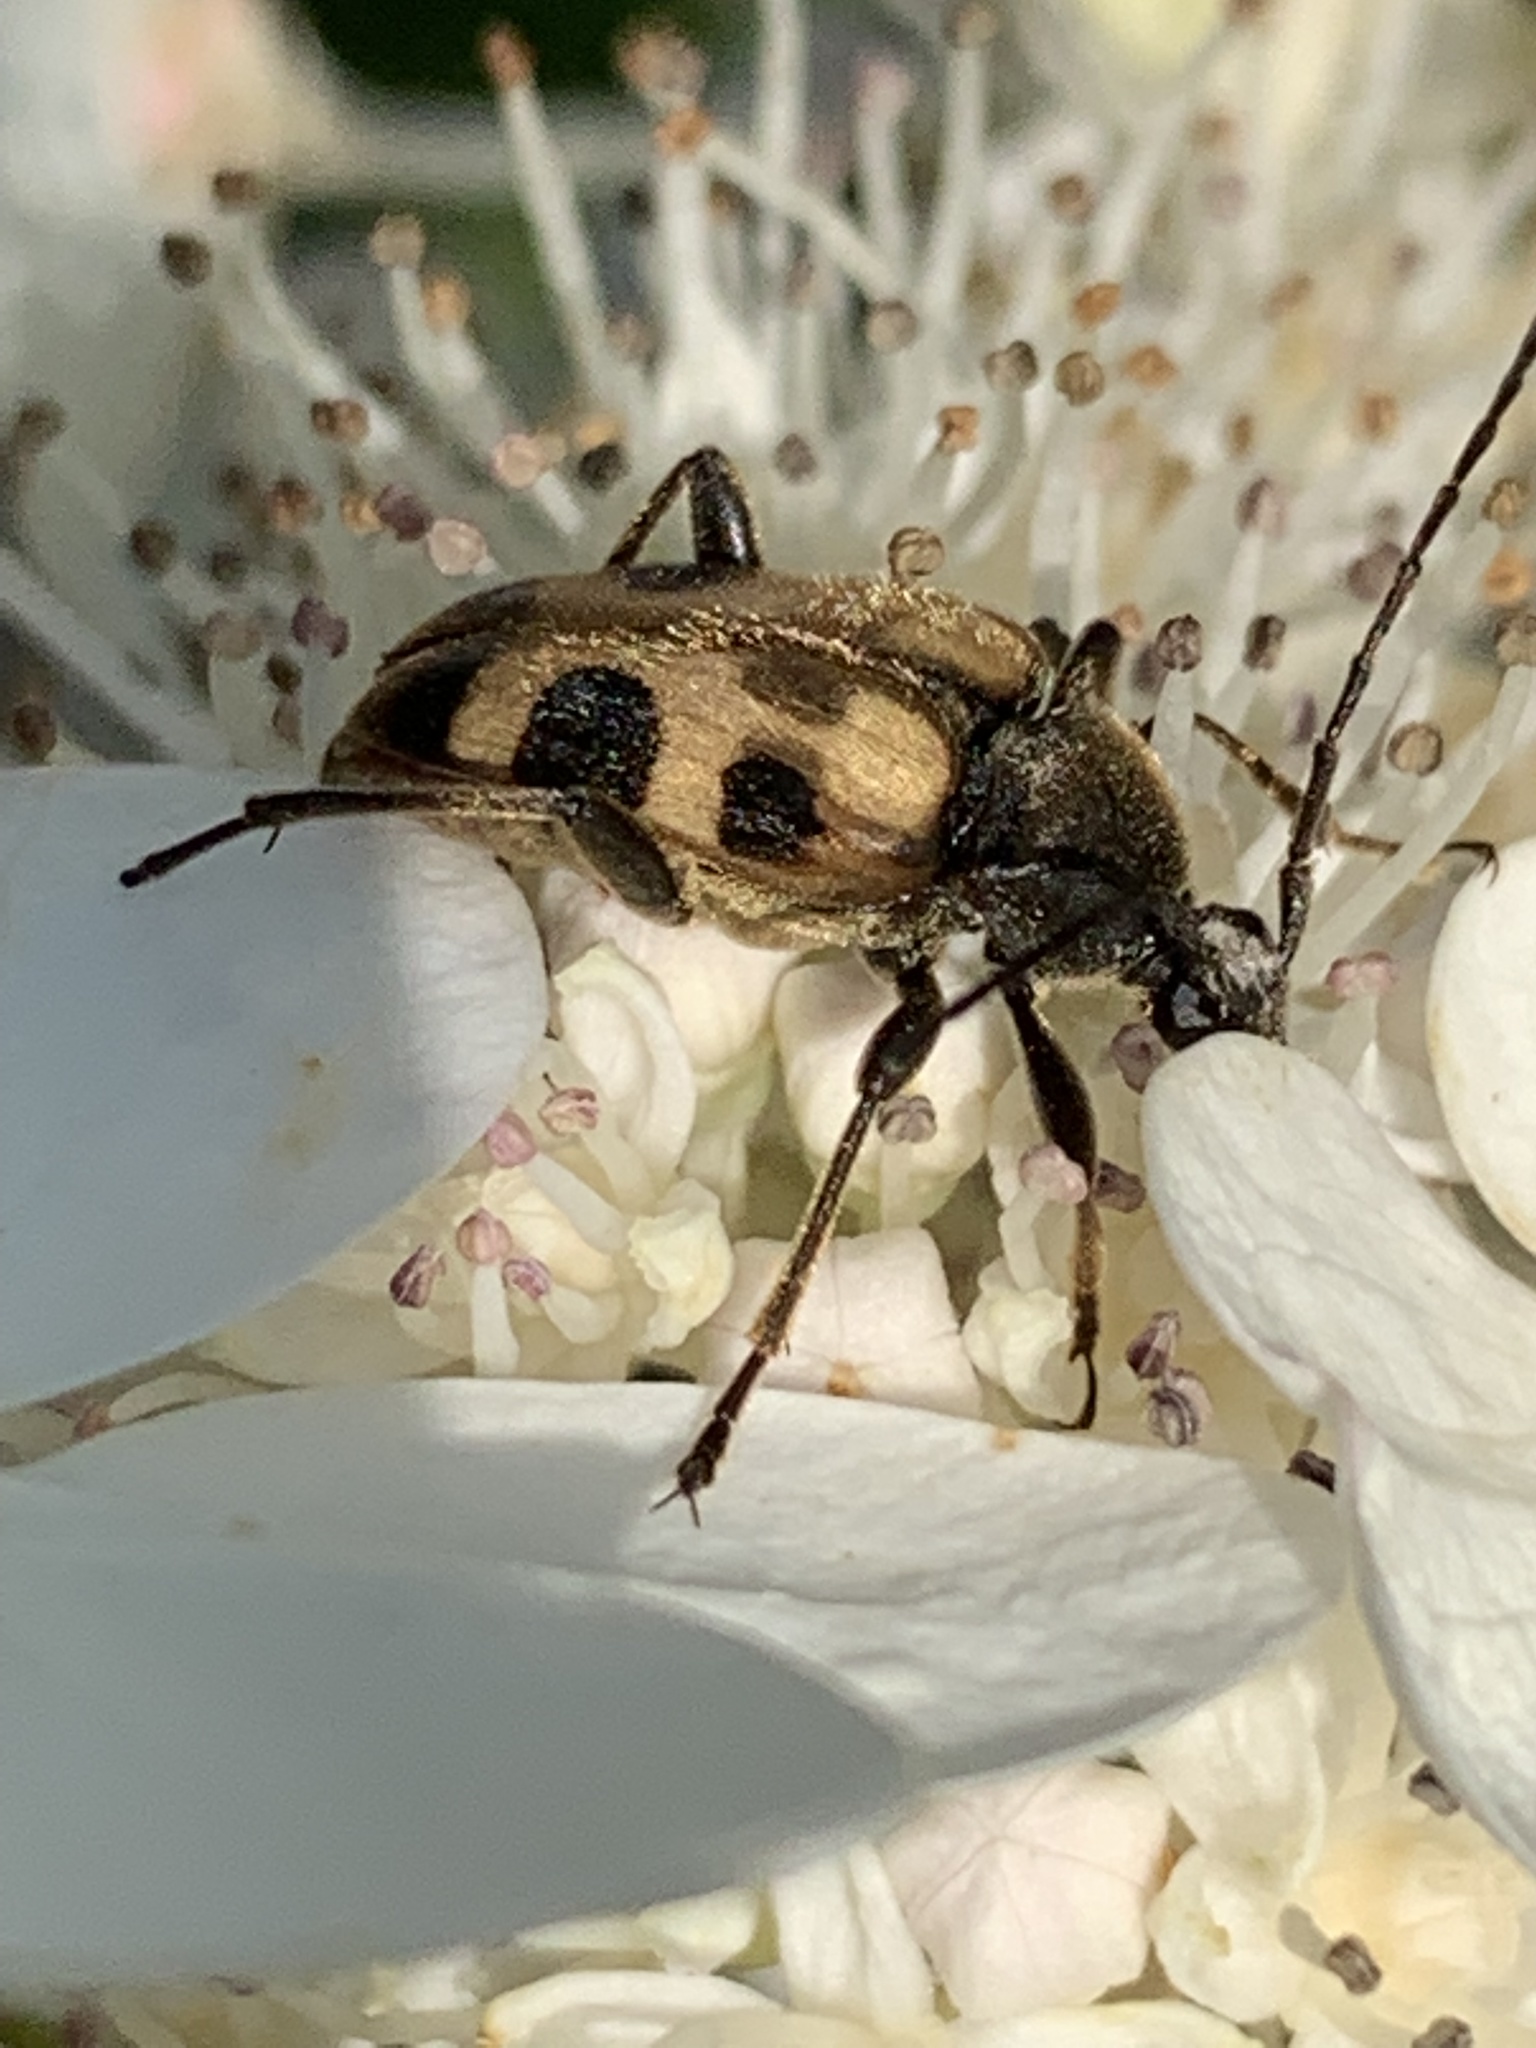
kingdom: Animalia
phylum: Arthropoda
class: Insecta
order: Coleoptera
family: Cerambycidae
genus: Judolia
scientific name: Judolia cordifera
